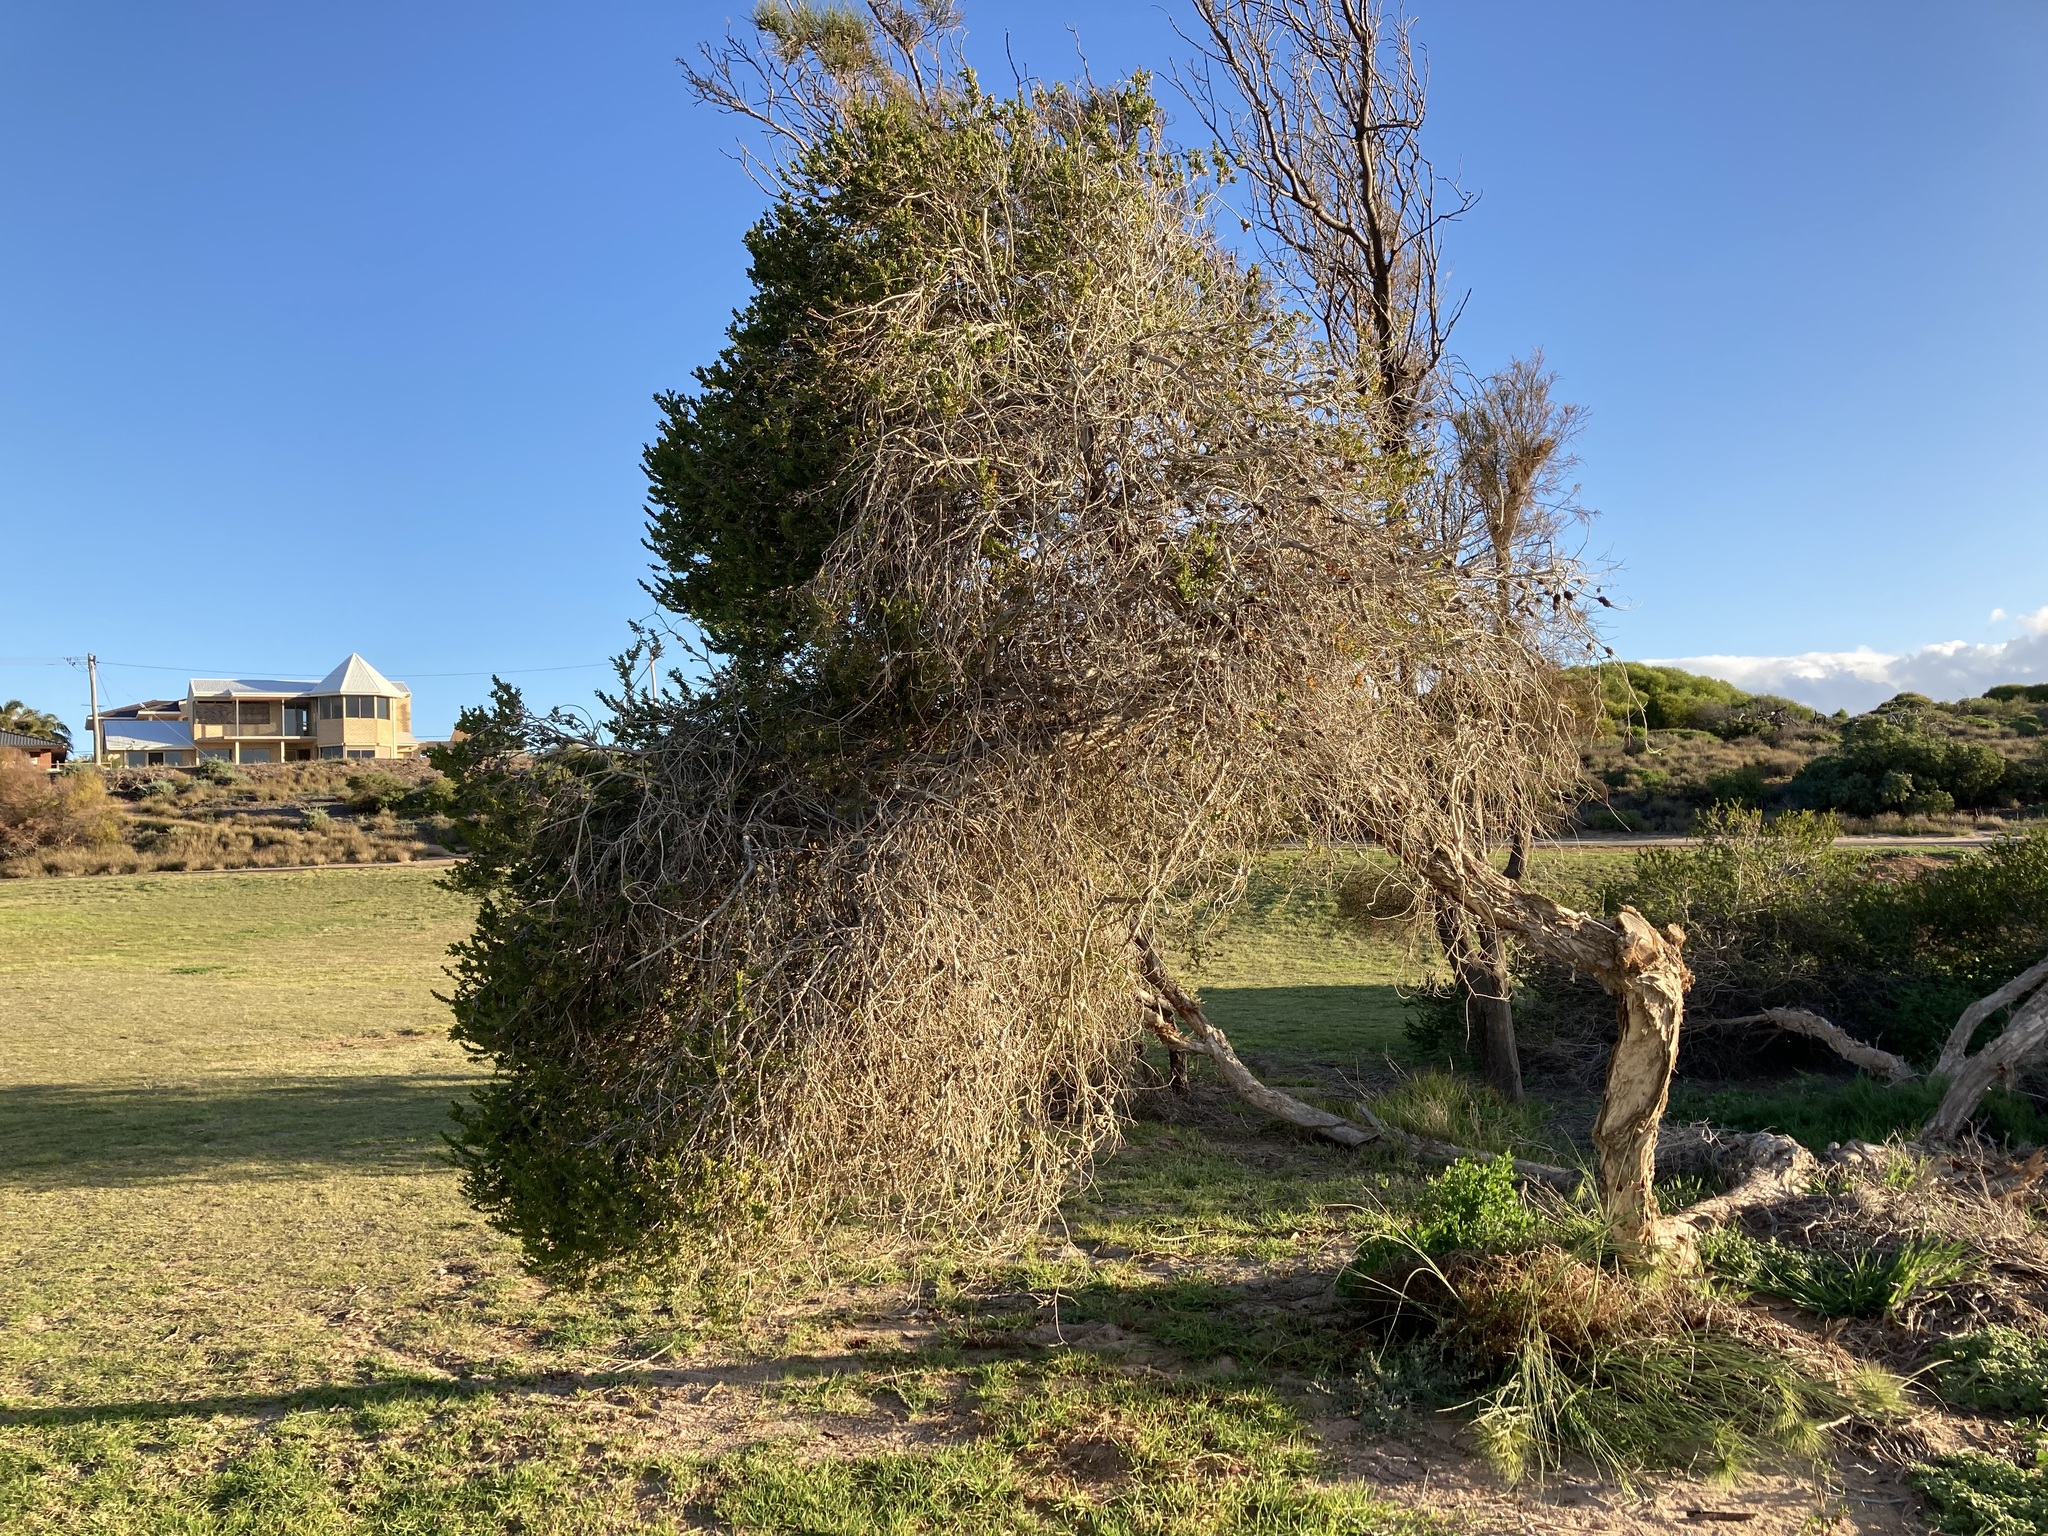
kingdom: Plantae
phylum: Tracheophyta
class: Magnoliopsida
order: Myrtales
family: Myrtaceae
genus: Melaleuca
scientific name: Melaleuca nesophila
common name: Mauve honey myrtle
